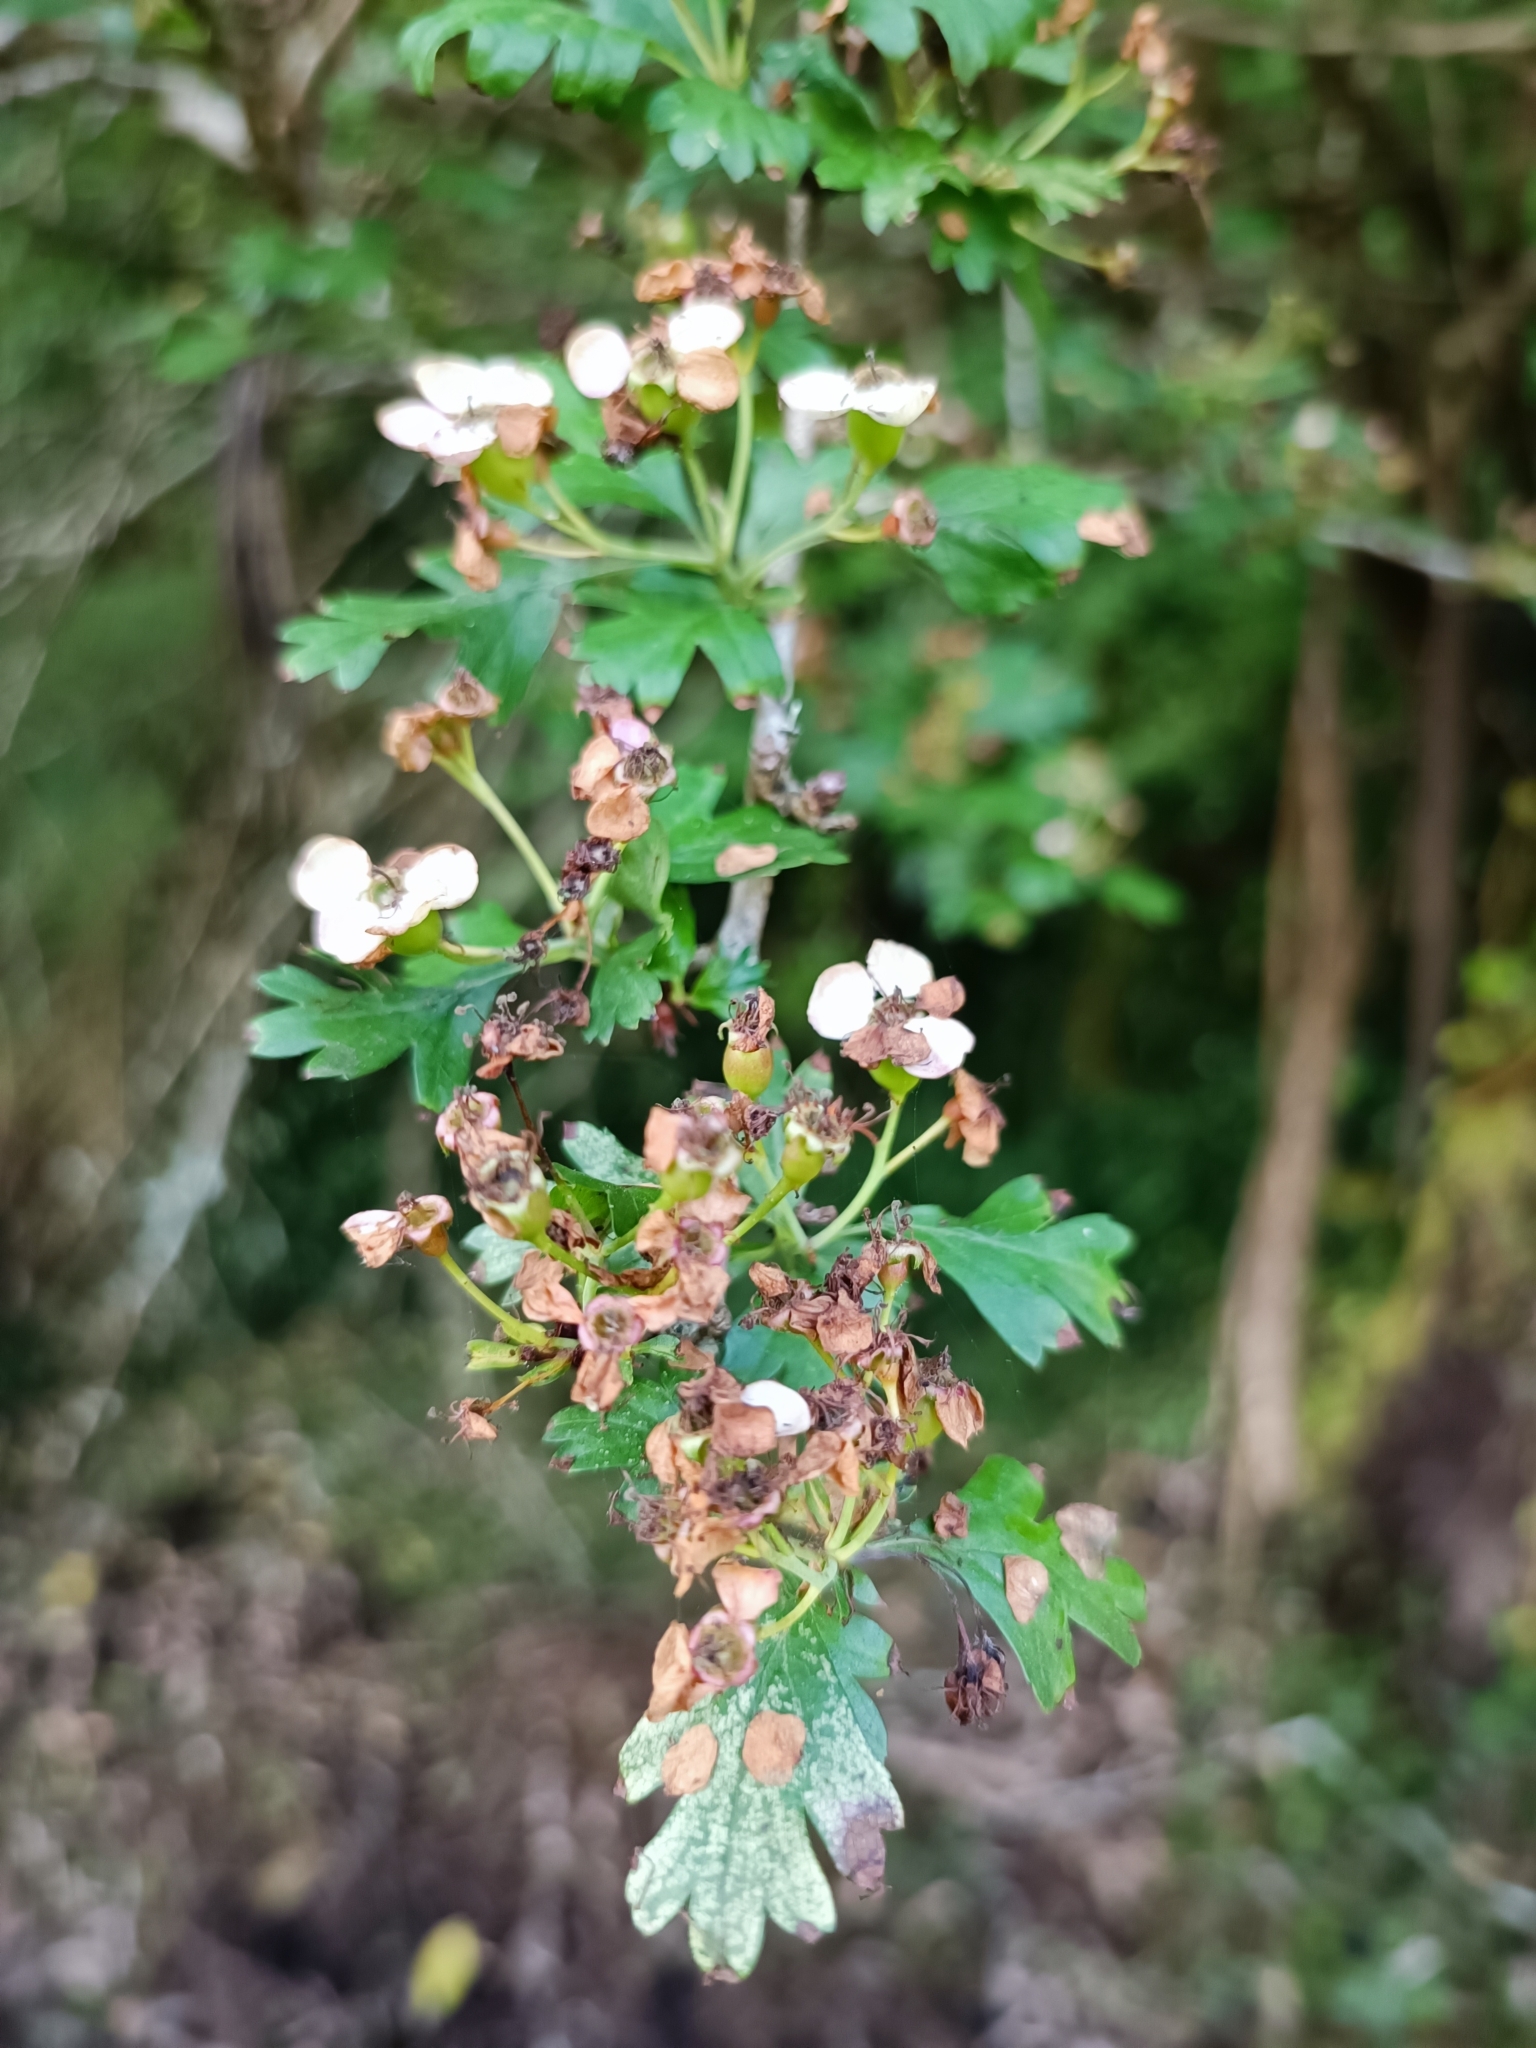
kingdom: Plantae
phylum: Tracheophyta
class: Magnoliopsida
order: Rosales
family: Rosaceae
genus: Crataegus
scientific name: Crataegus monogyna
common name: Hawthorn
